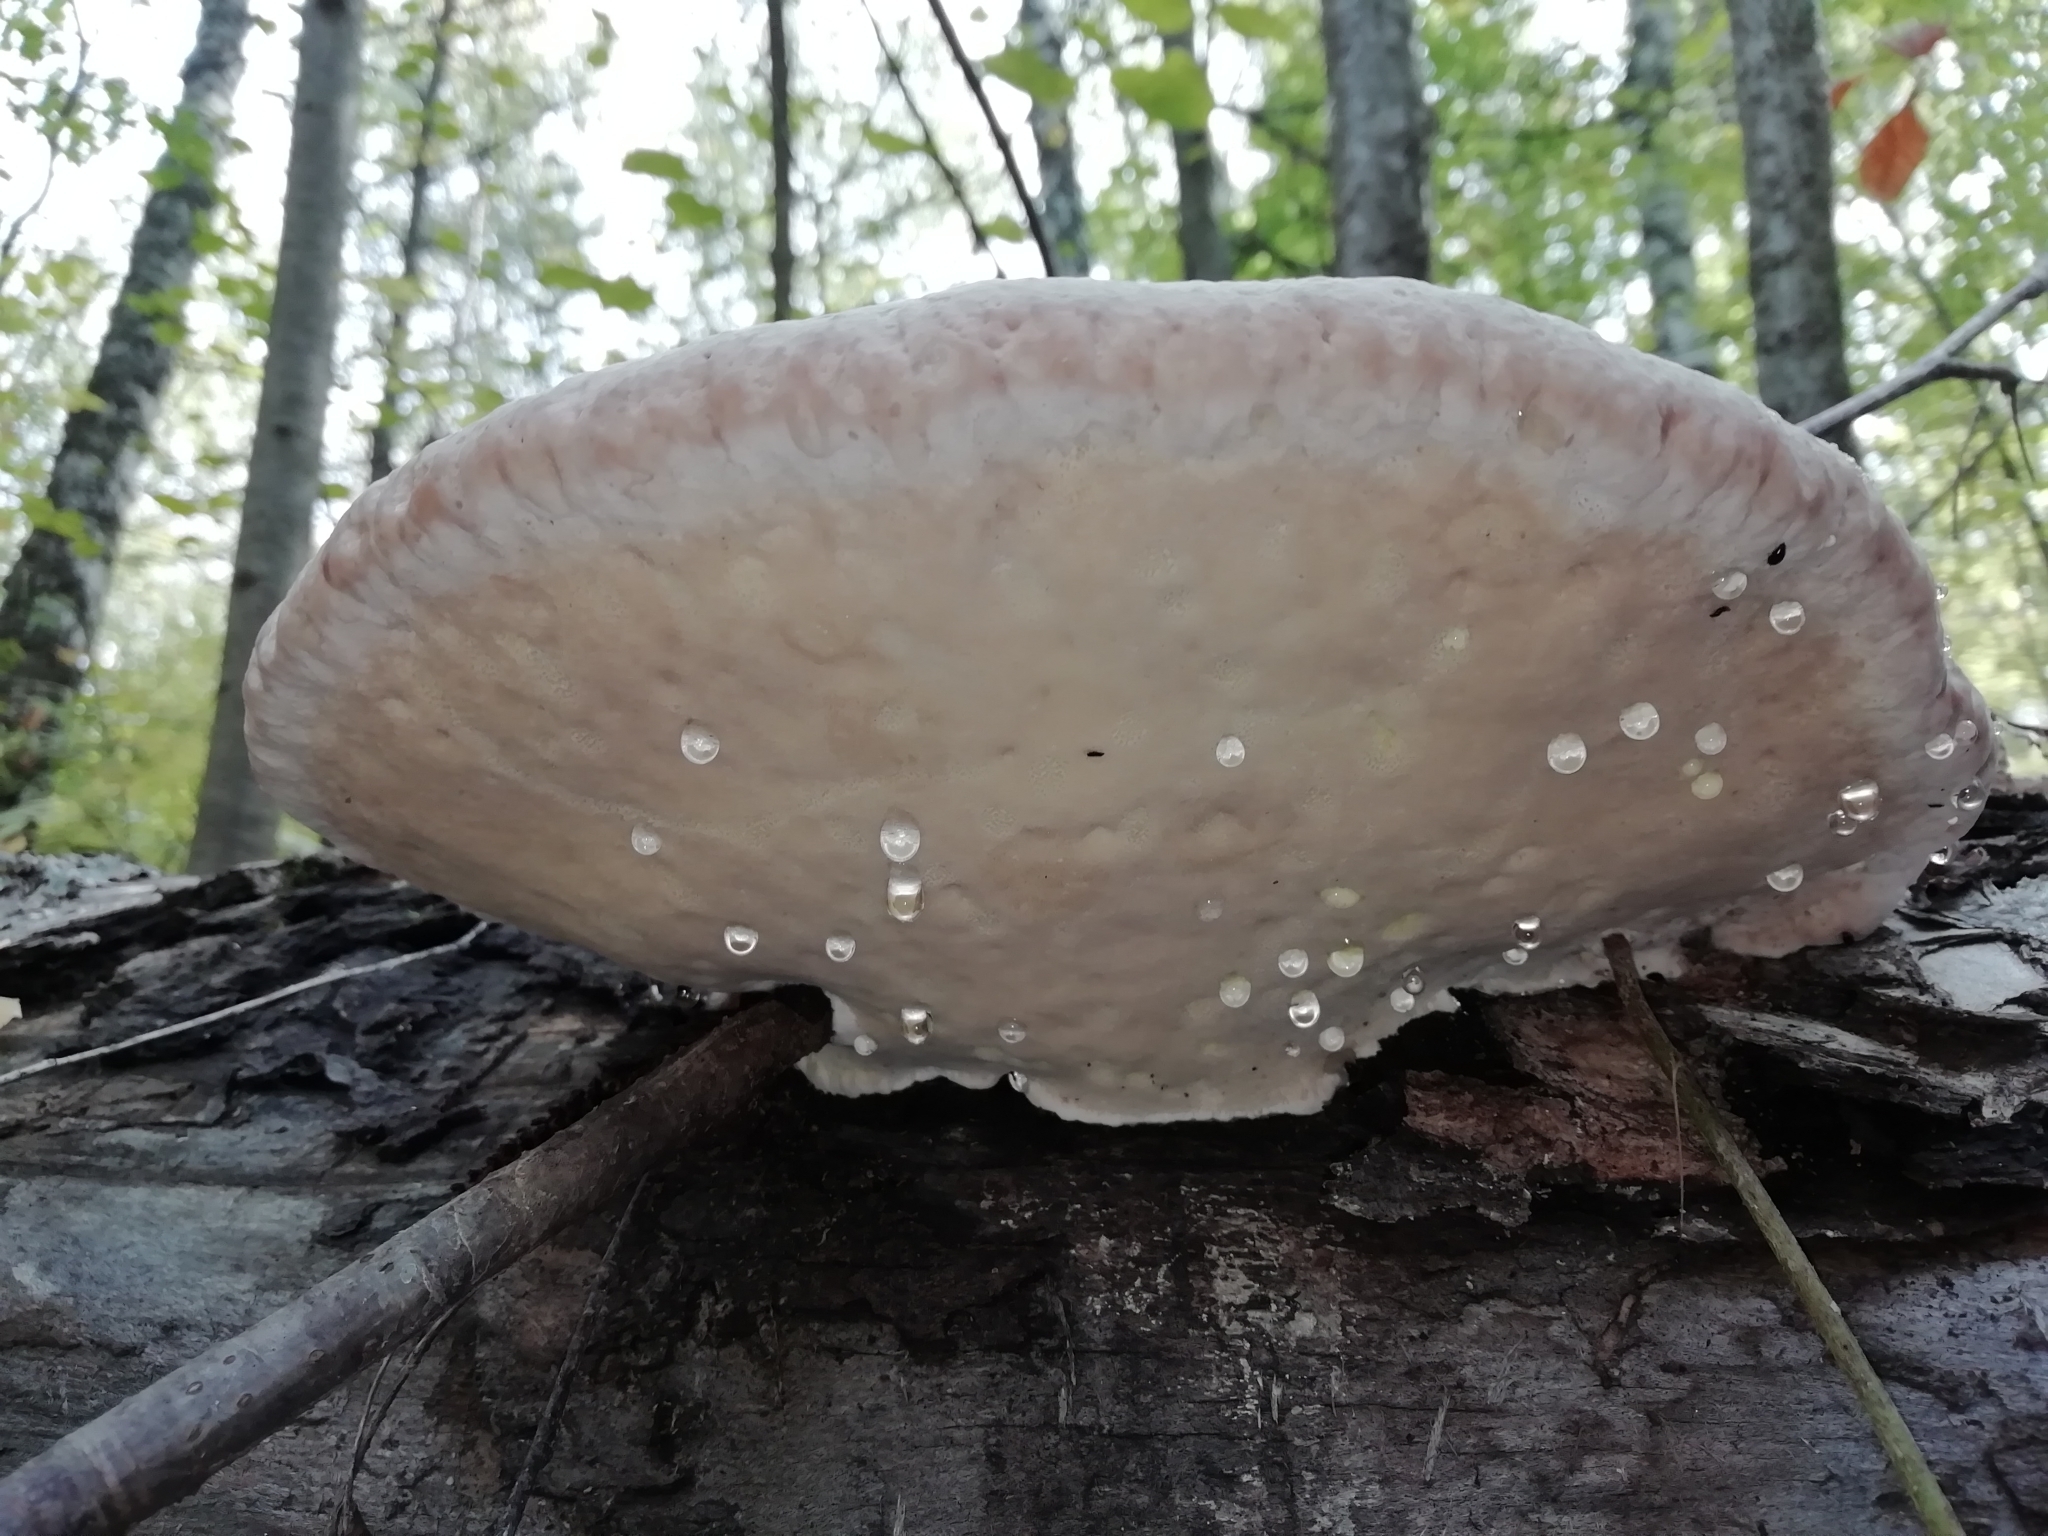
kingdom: Fungi
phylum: Basidiomycota
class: Agaricomycetes
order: Polyporales
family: Fomitopsidaceae
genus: Fomitopsis
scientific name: Fomitopsis pinicola
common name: Red-belted bracket
